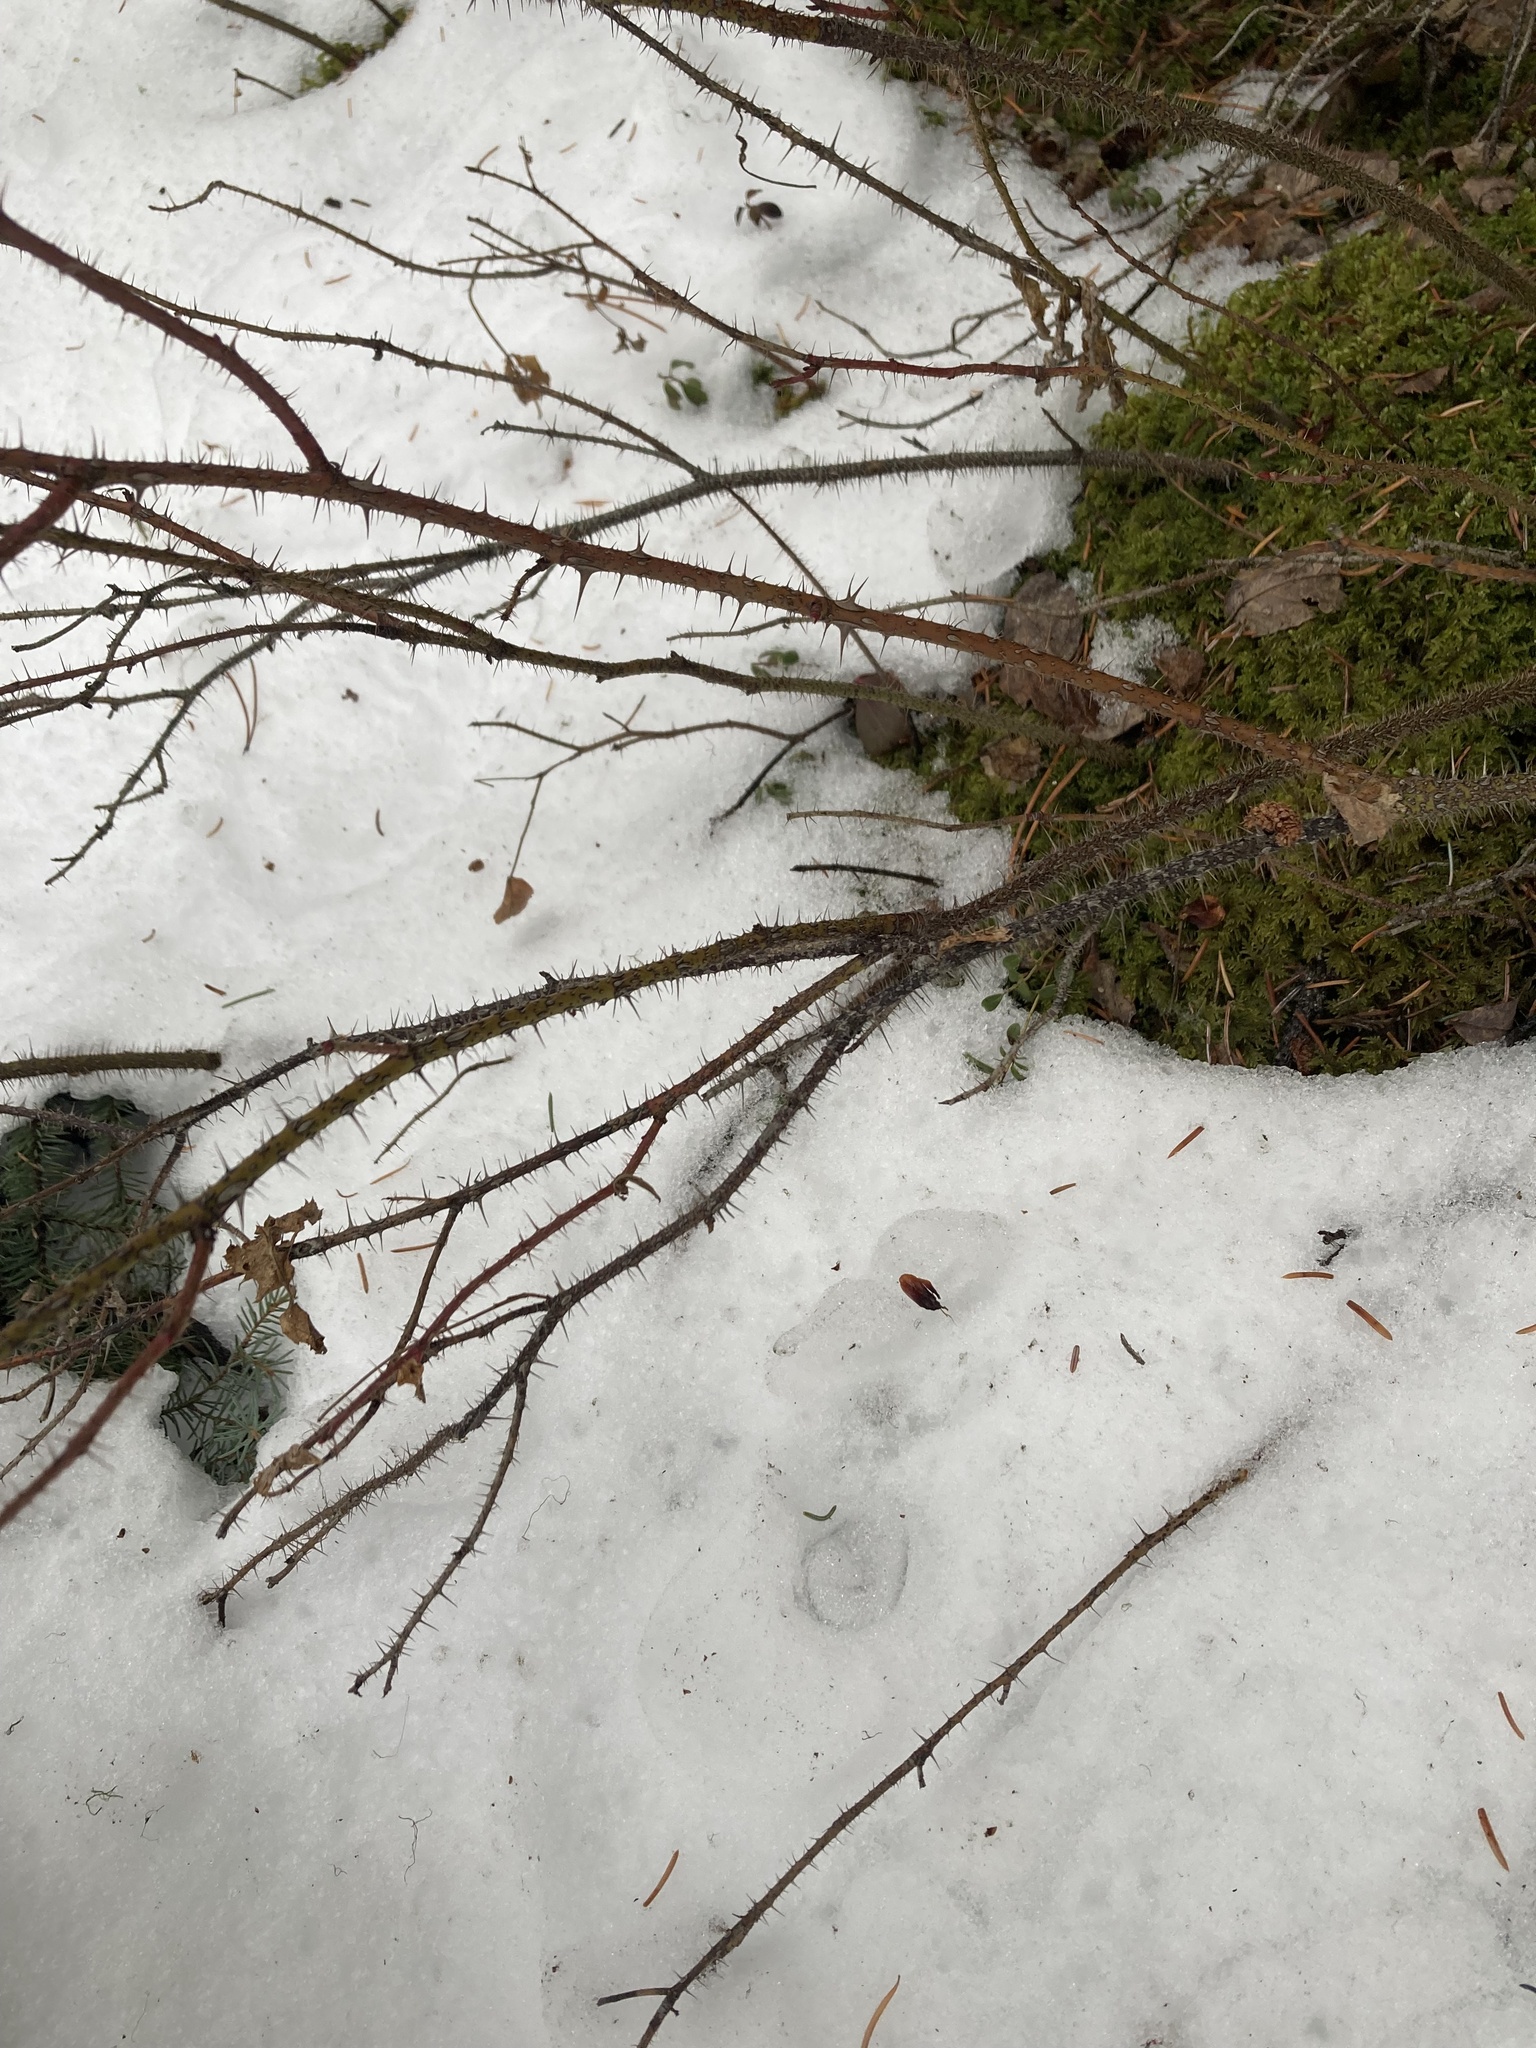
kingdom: Plantae
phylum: Tracheophyta
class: Magnoliopsida
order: Rosales
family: Rosaceae
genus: Rosa
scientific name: Rosa acicularis
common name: Prickly rose
